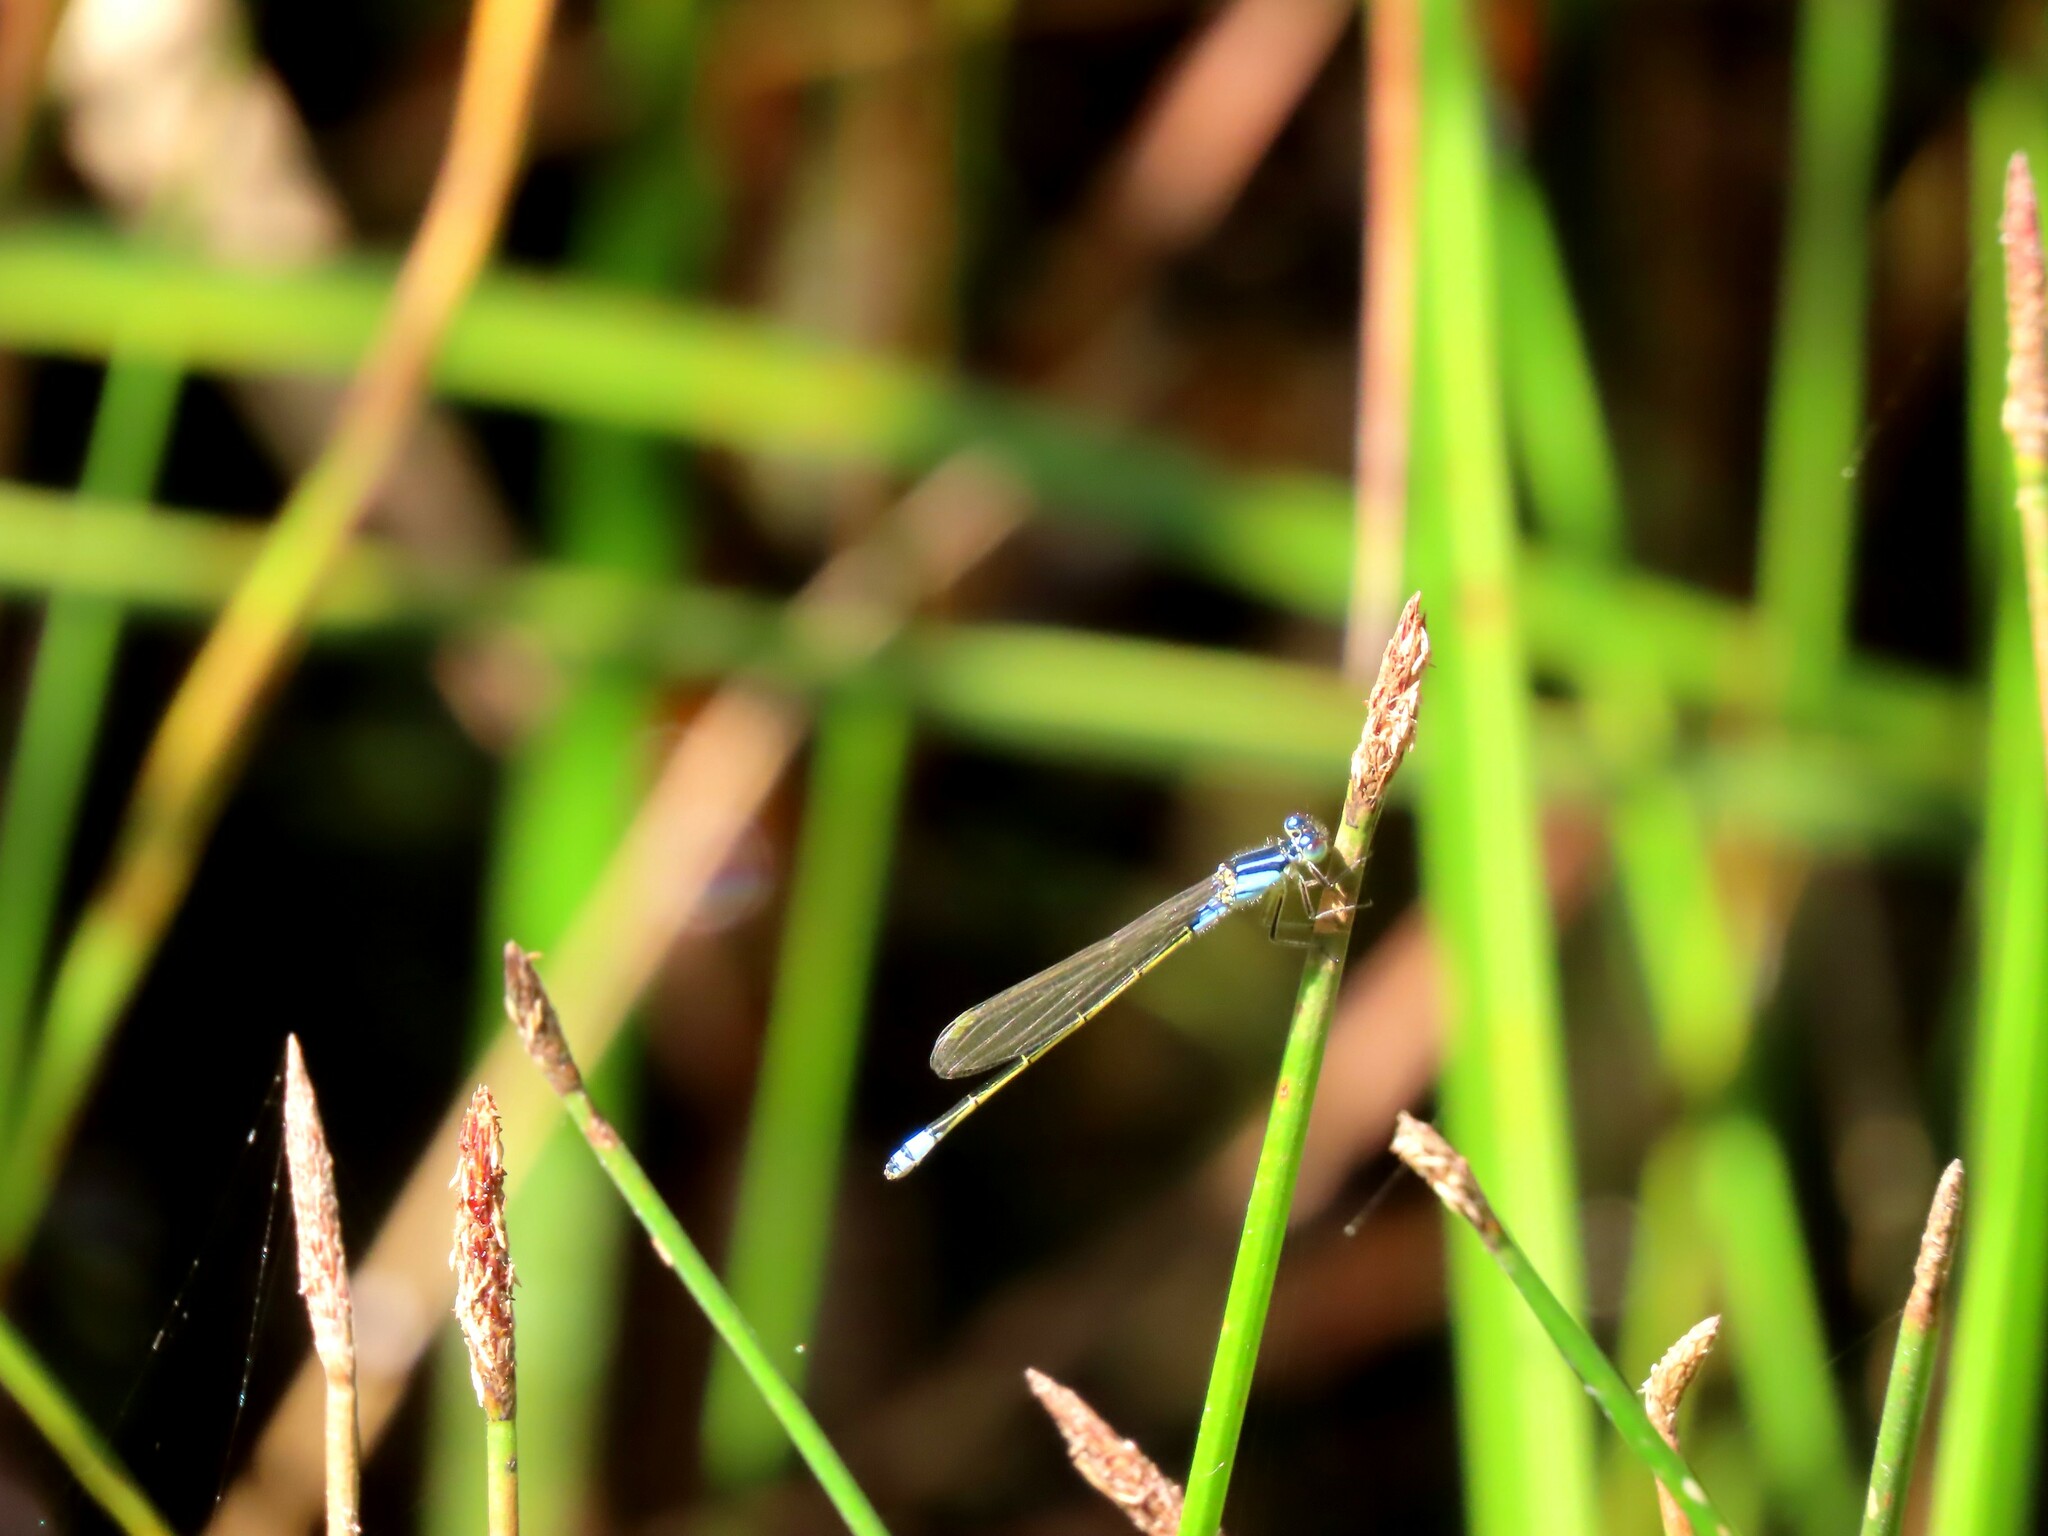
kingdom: Animalia
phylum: Arthropoda
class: Insecta
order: Odonata
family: Coenagrionidae
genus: Ischnura
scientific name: Ischnura heterosticta
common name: Common bluetail
